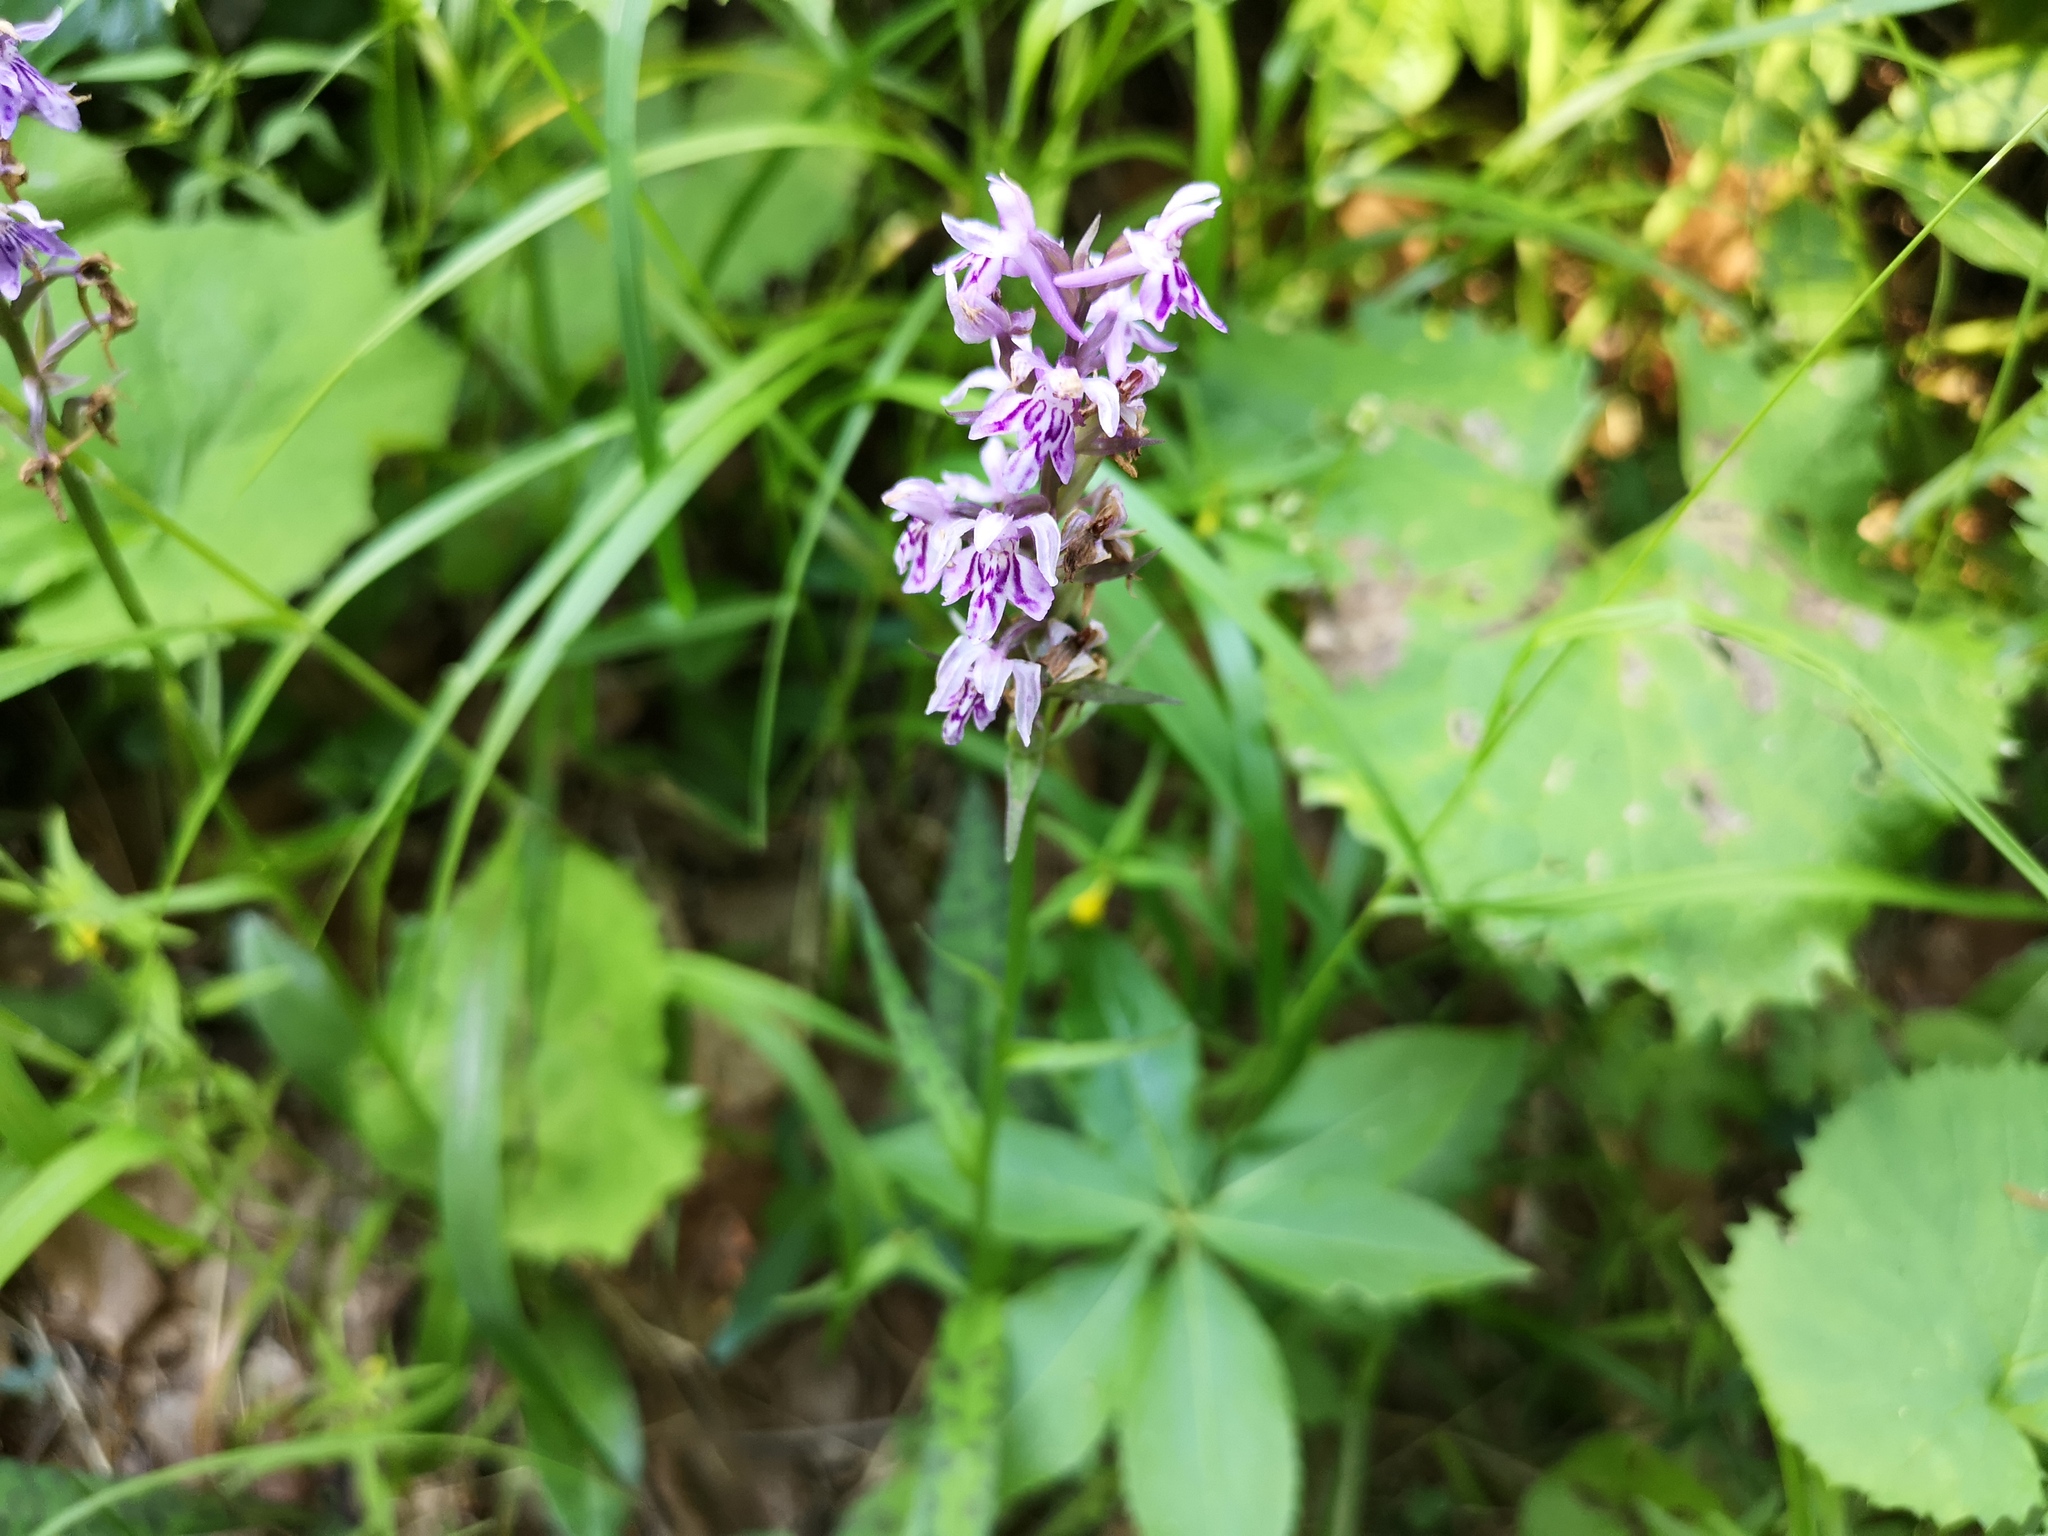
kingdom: Plantae
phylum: Tracheophyta
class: Liliopsida
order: Asparagales
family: Orchidaceae
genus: Dactylorhiza
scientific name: Dactylorhiza maculata
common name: Heath spotted-orchid
